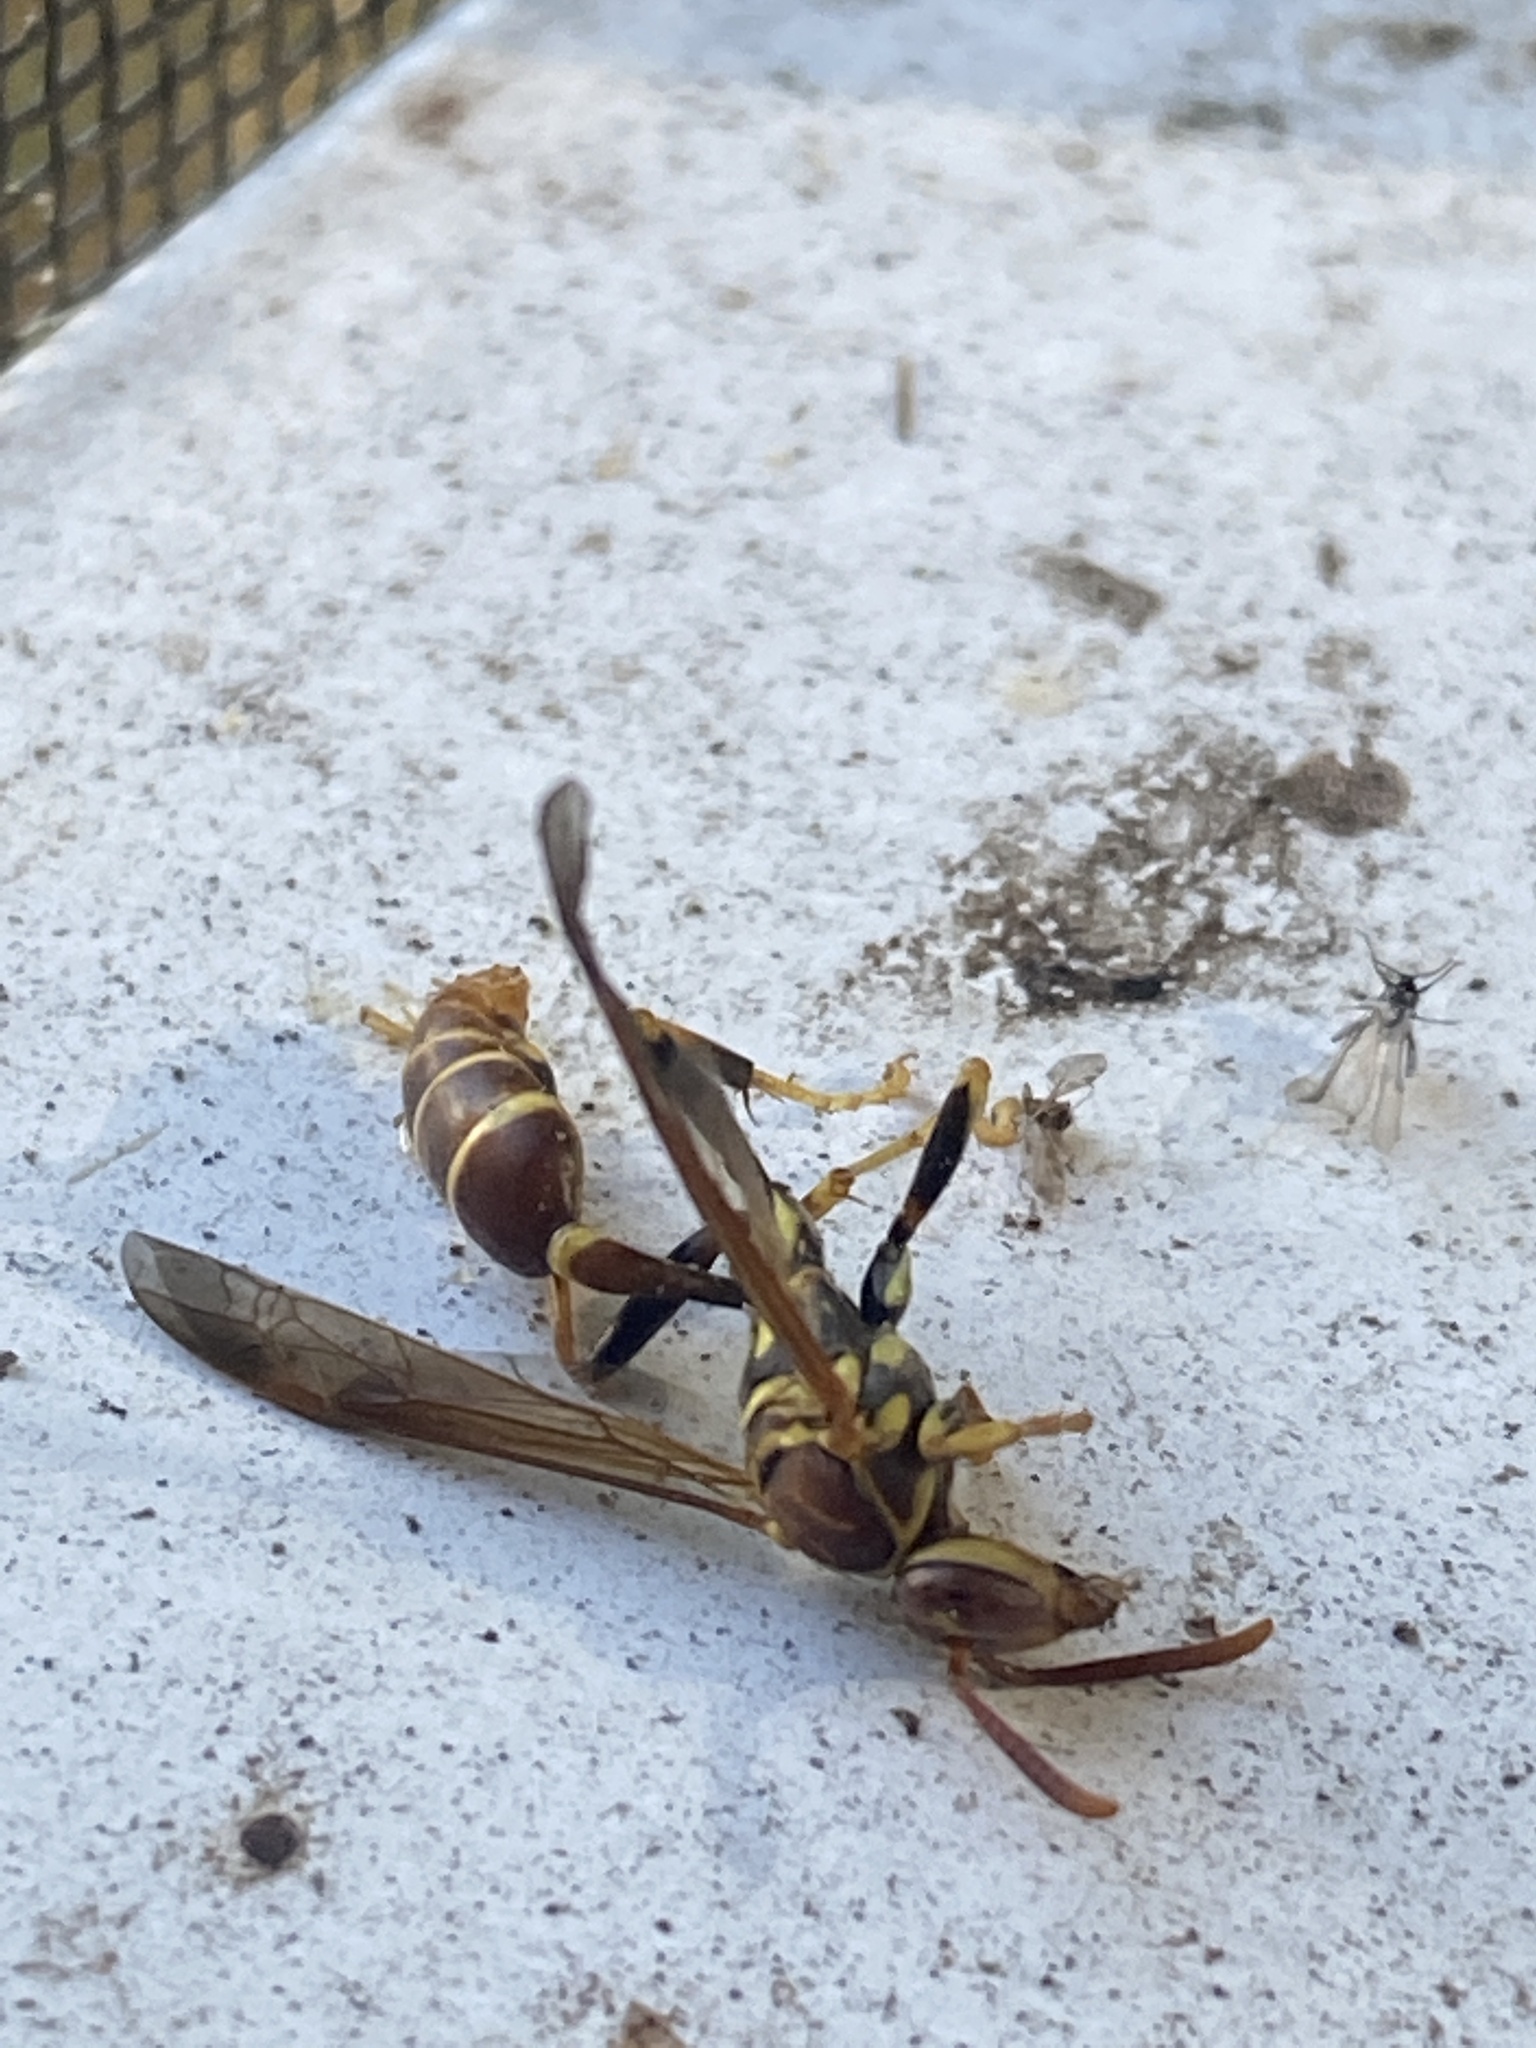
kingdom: Animalia
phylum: Arthropoda
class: Insecta
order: Hymenoptera
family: Vespidae
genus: Mischocyttarus
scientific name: Mischocyttarus mexicanus
